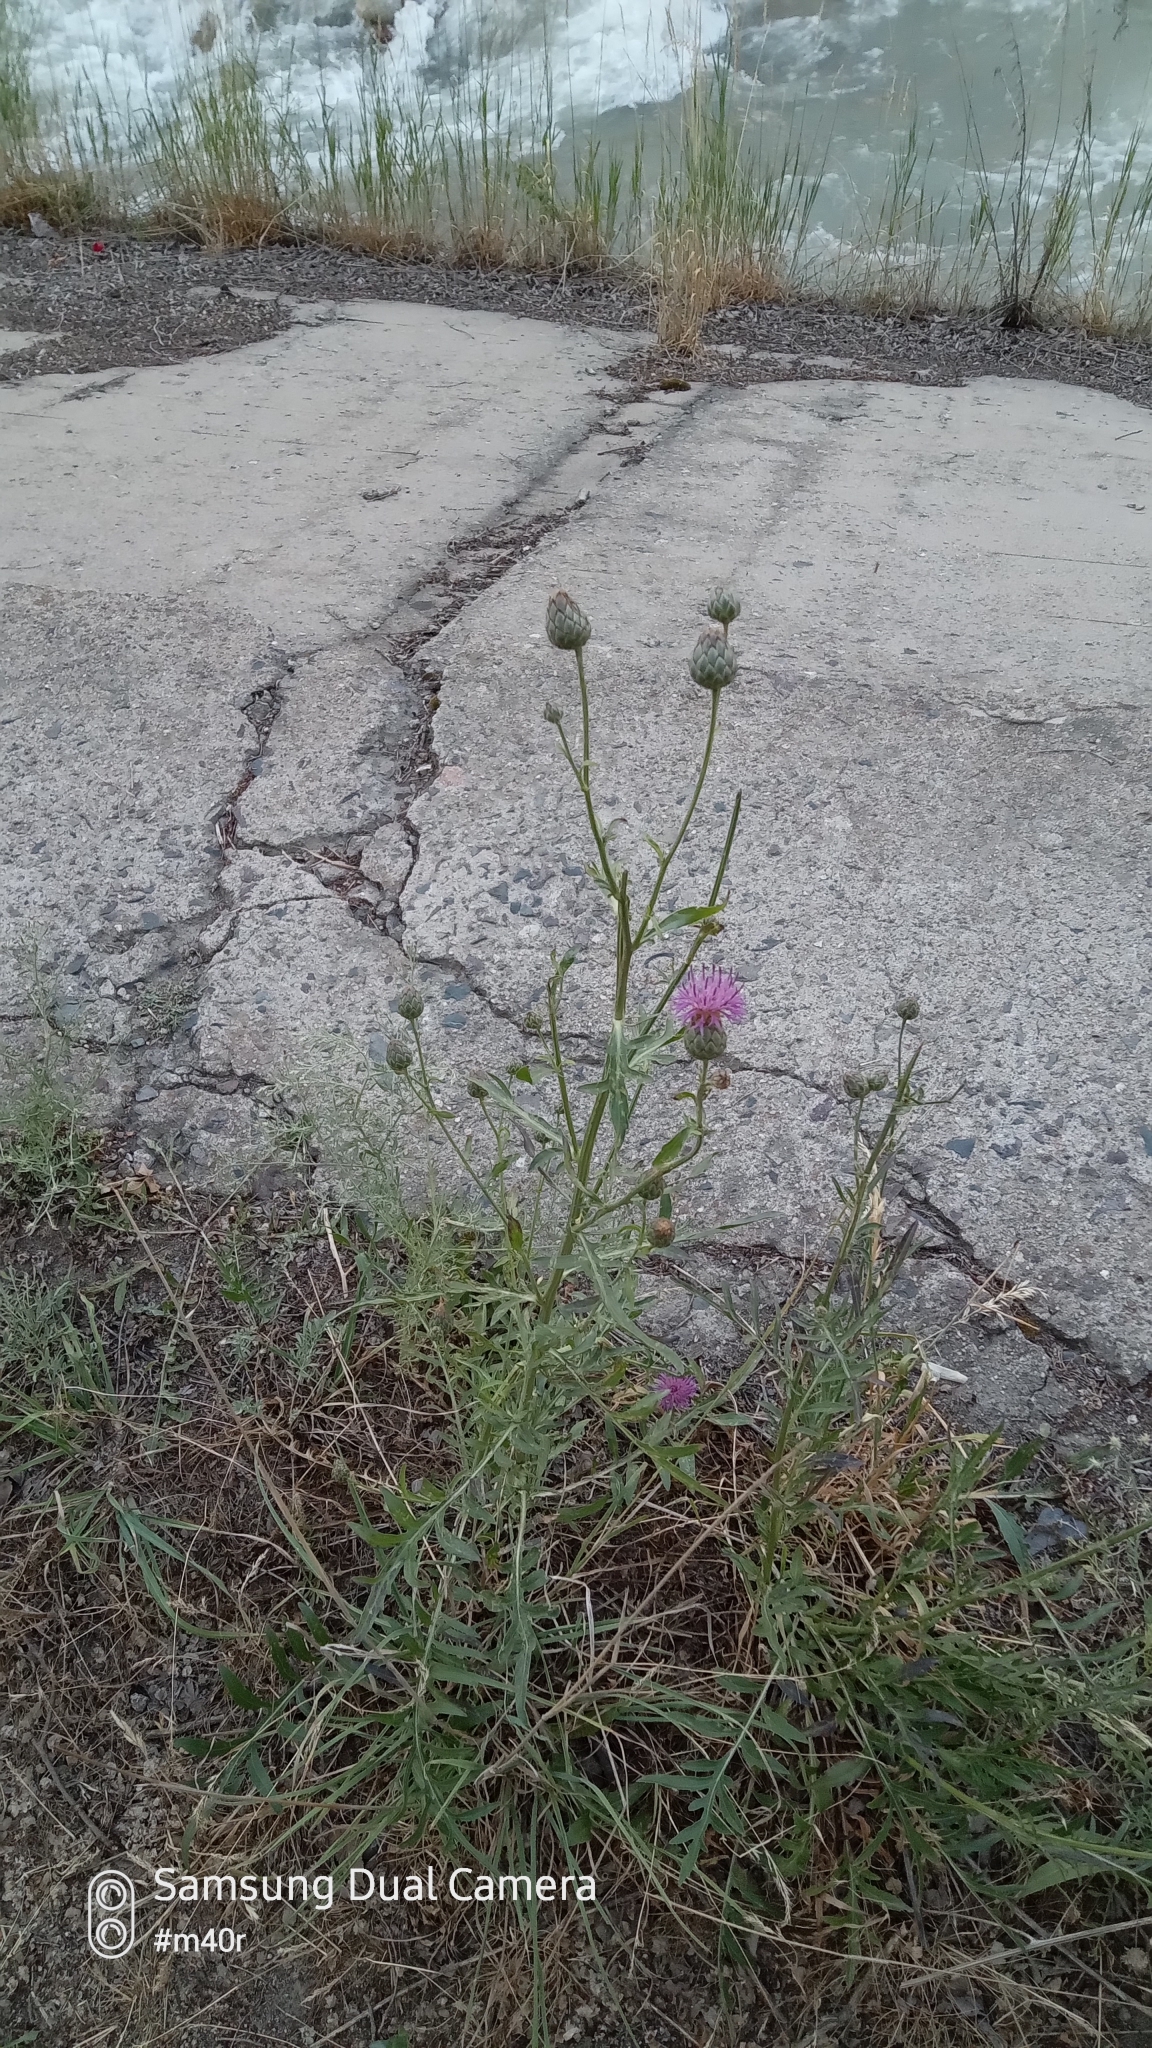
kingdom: Plantae
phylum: Tracheophyta
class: Magnoliopsida
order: Asterales
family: Asteraceae
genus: Centaurea
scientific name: Centaurea adpressa
